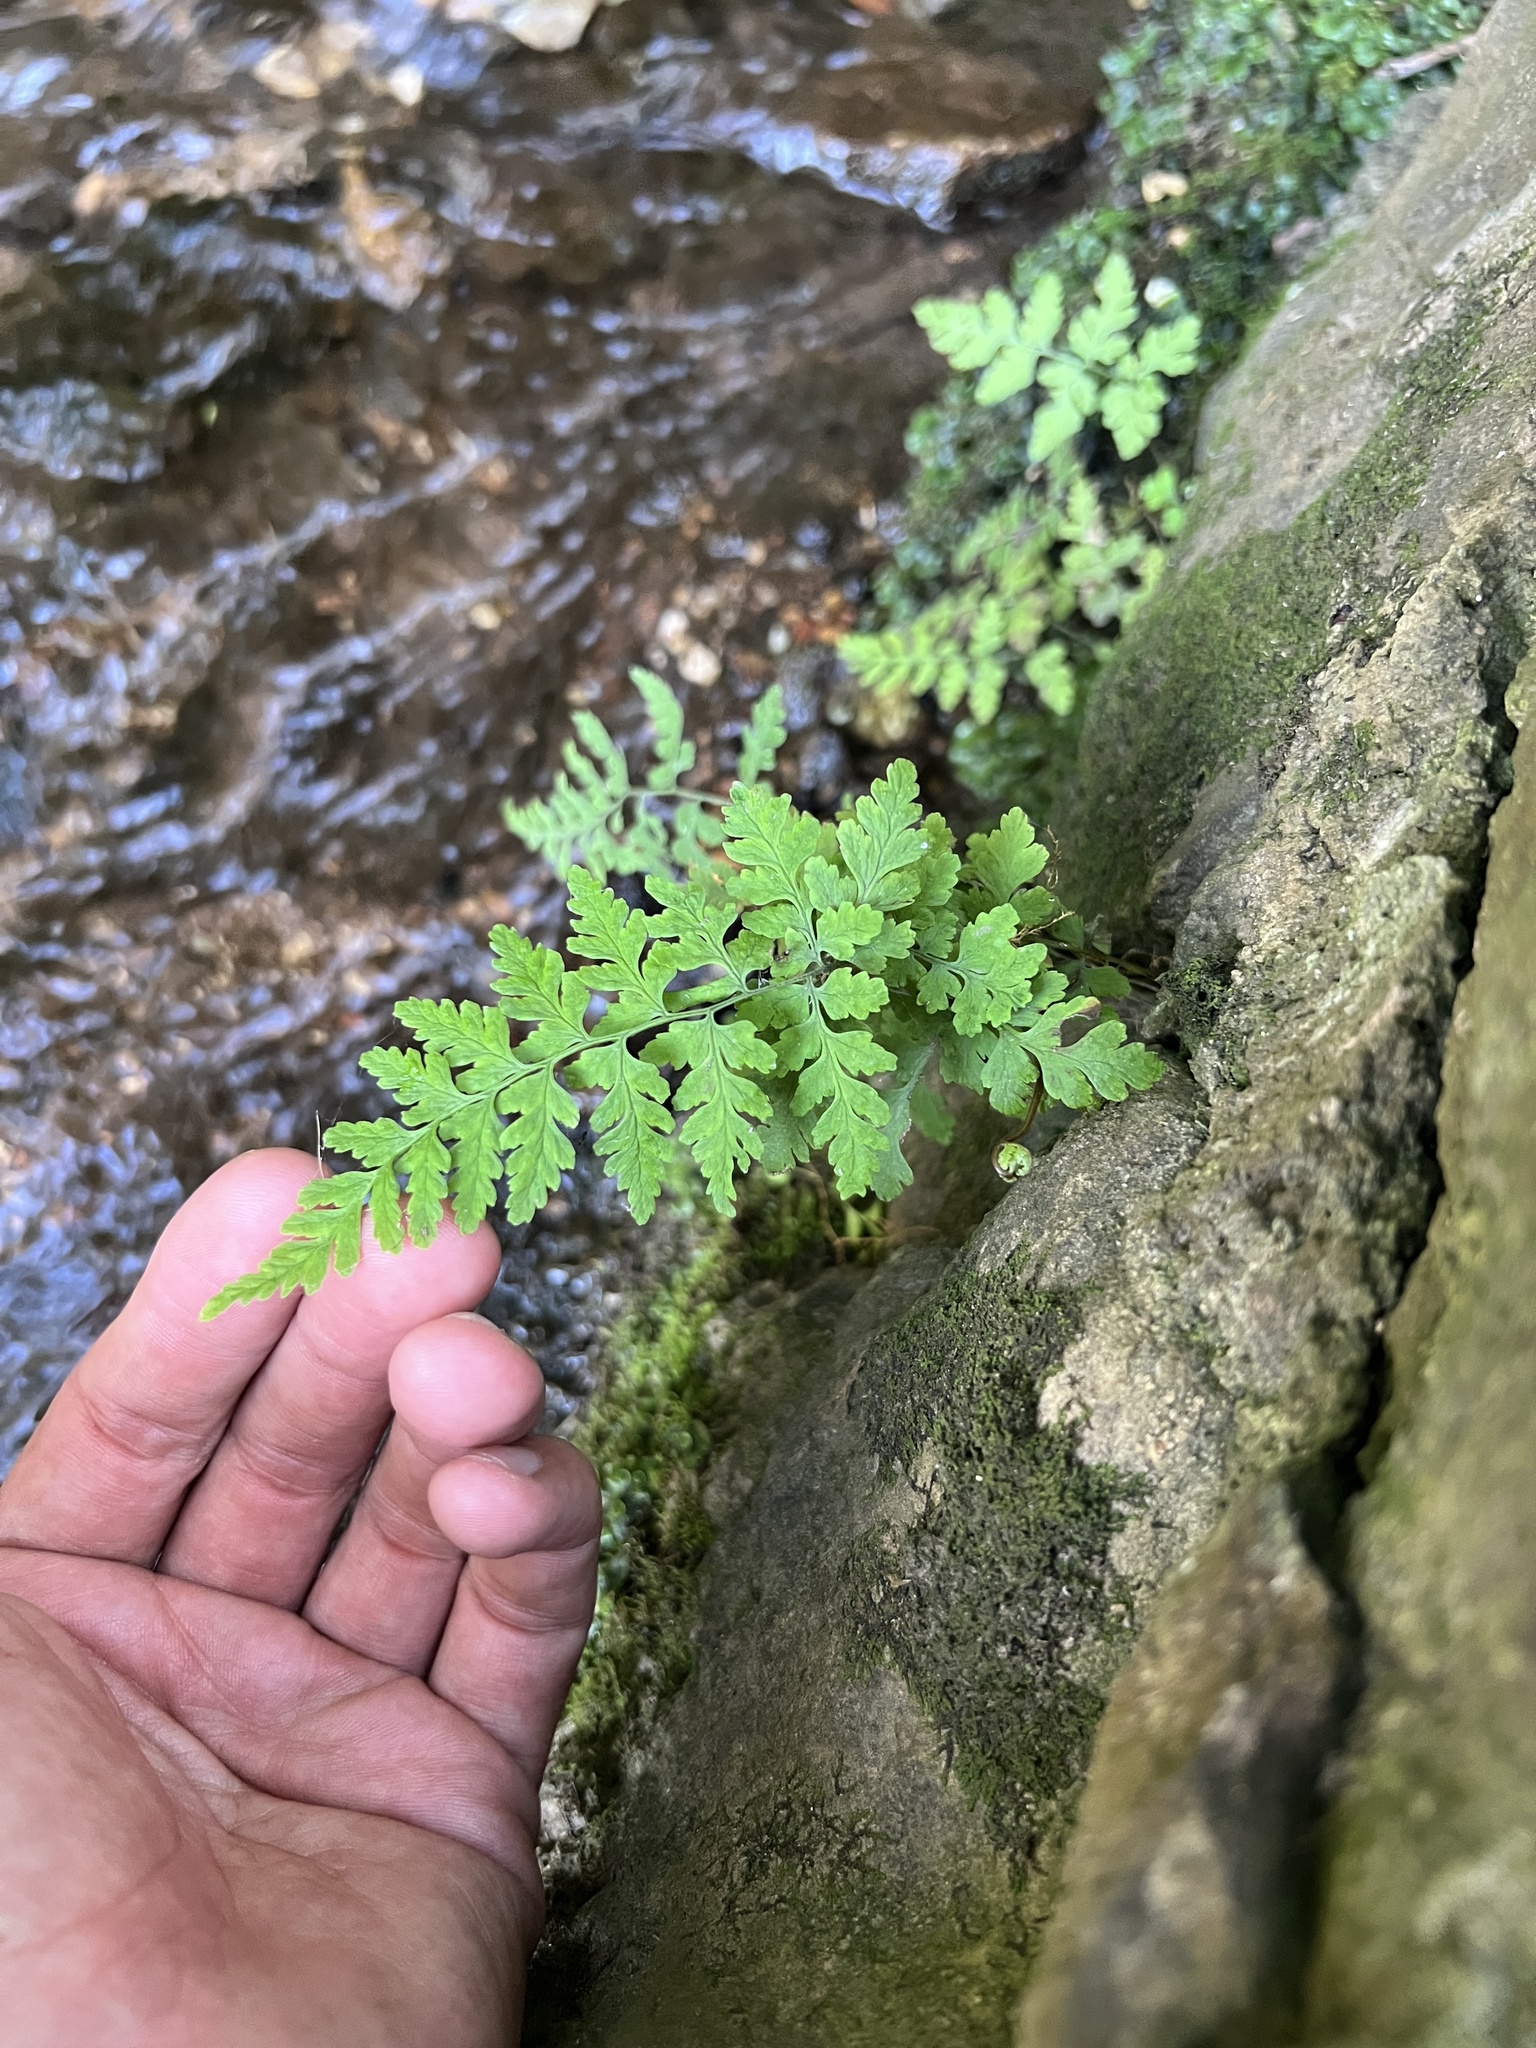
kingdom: Plantae
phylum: Tracheophyta
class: Polypodiopsida
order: Polypodiales
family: Cystopteridaceae
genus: Cystopteris
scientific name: Cystopteris tennesseensis
